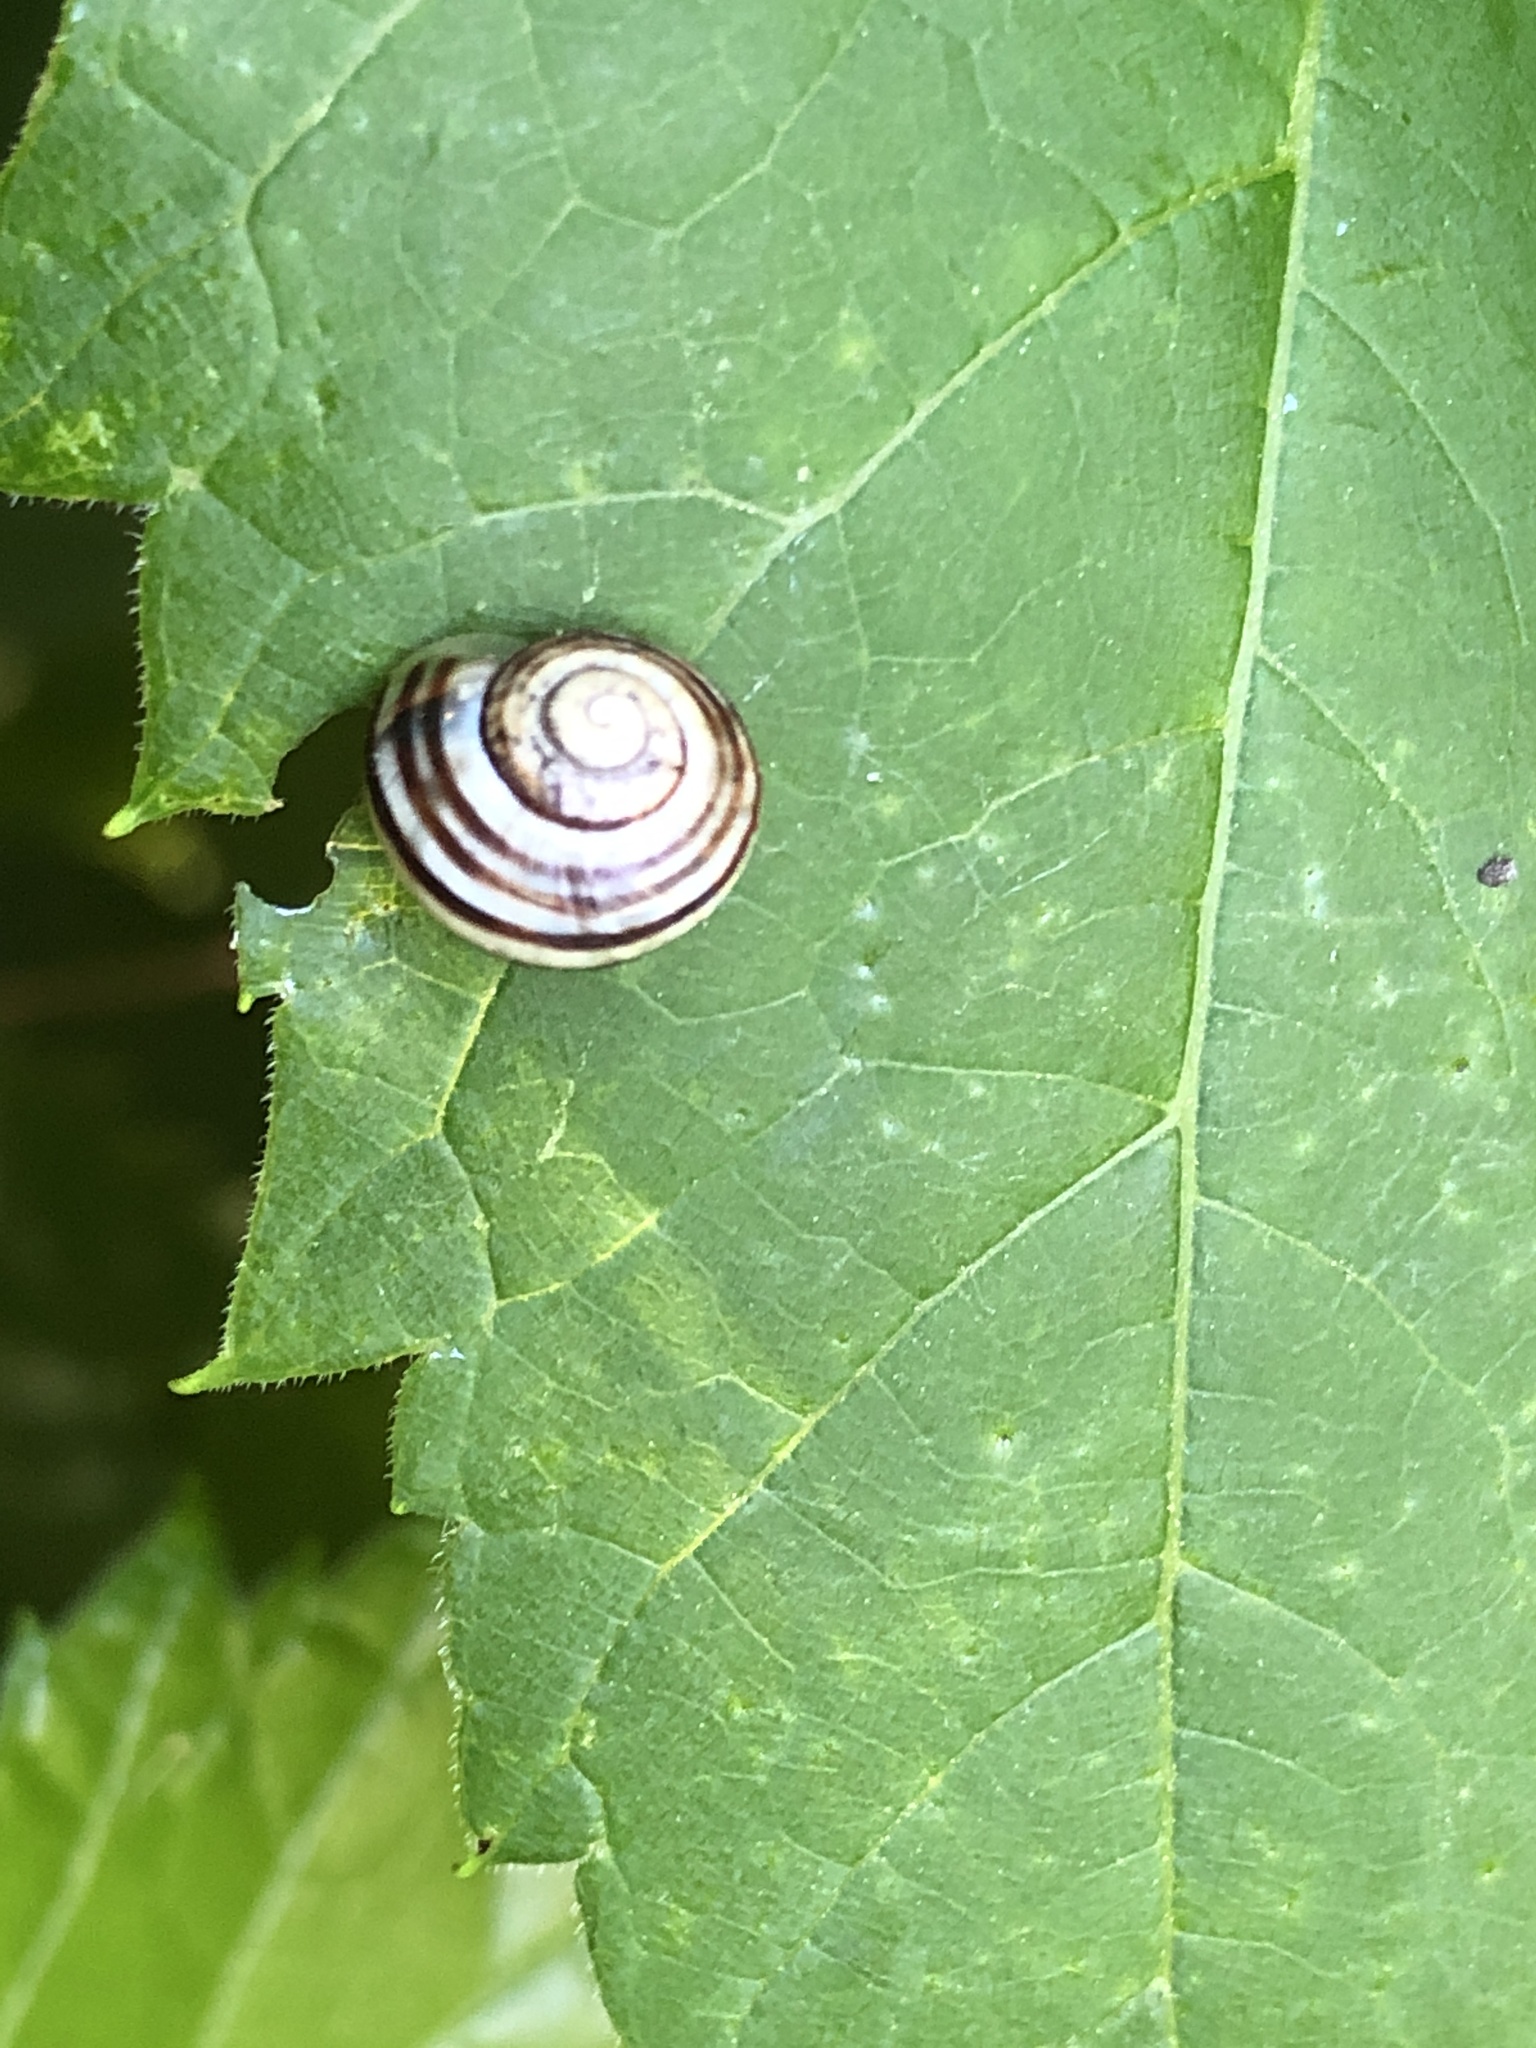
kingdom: Animalia
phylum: Mollusca
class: Gastropoda
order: Stylommatophora
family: Helicidae
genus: Cepaea
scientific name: Cepaea
